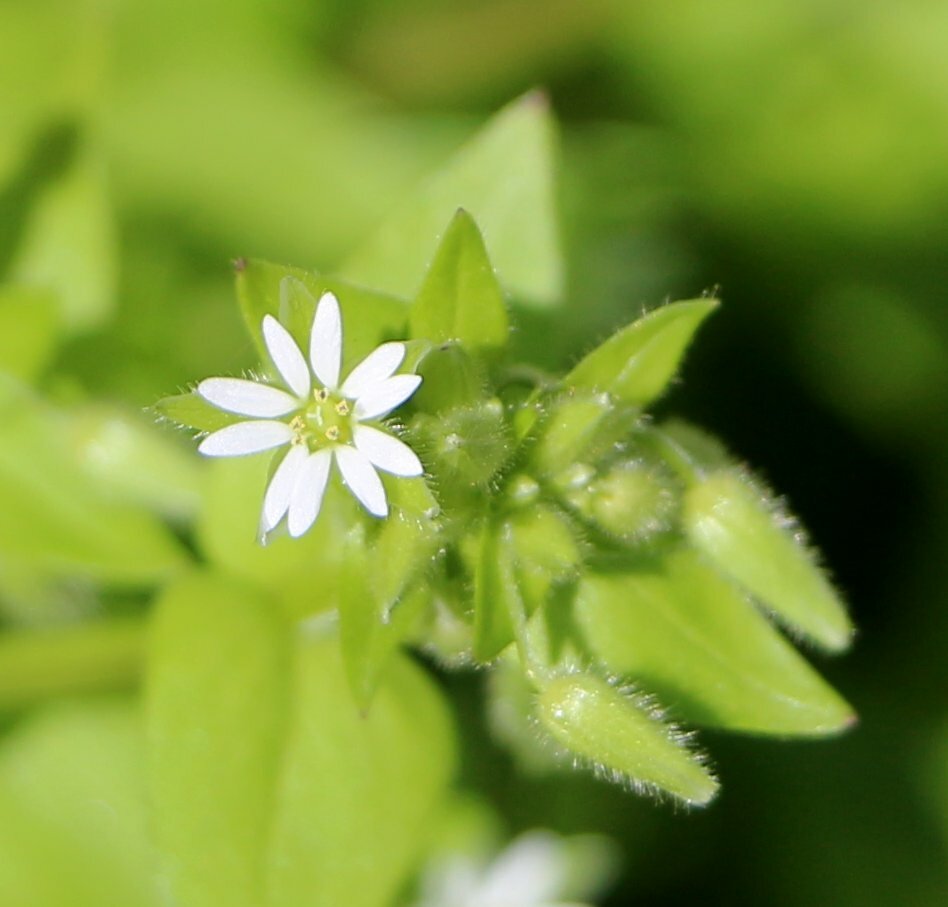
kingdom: Plantae
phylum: Tracheophyta
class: Magnoliopsida
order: Caryophyllales
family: Caryophyllaceae
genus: Stellaria
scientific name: Stellaria media
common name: Common chickweed
